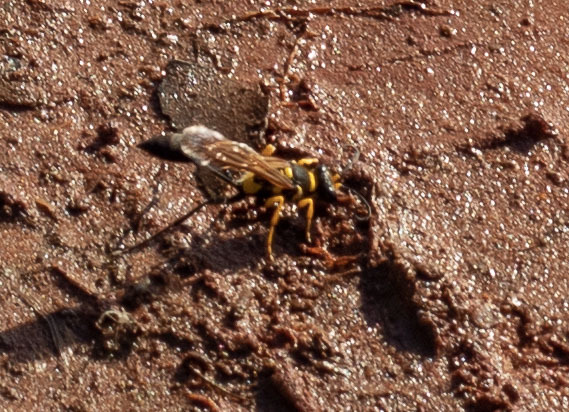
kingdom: Animalia
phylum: Arthropoda
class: Insecta
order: Hymenoptera
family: Sphecidae
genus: Sceliphron
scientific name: Sceliphron asiaticum
